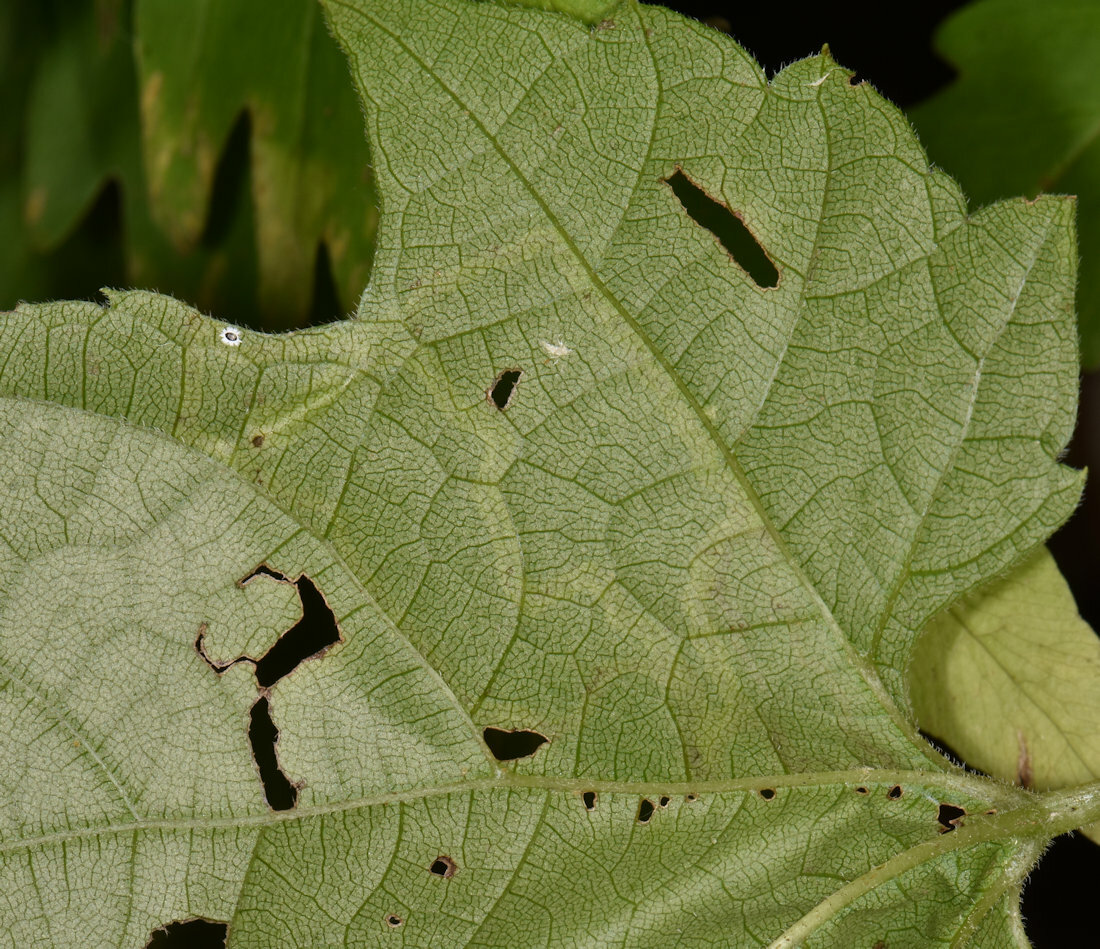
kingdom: Animalia
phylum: Arthropoda
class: Insecta
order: Lepidoptera
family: Gracillariidae
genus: Phyllocnistis
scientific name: Phyllocnistis vitifoliella
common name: Grape leaf-miner moth
